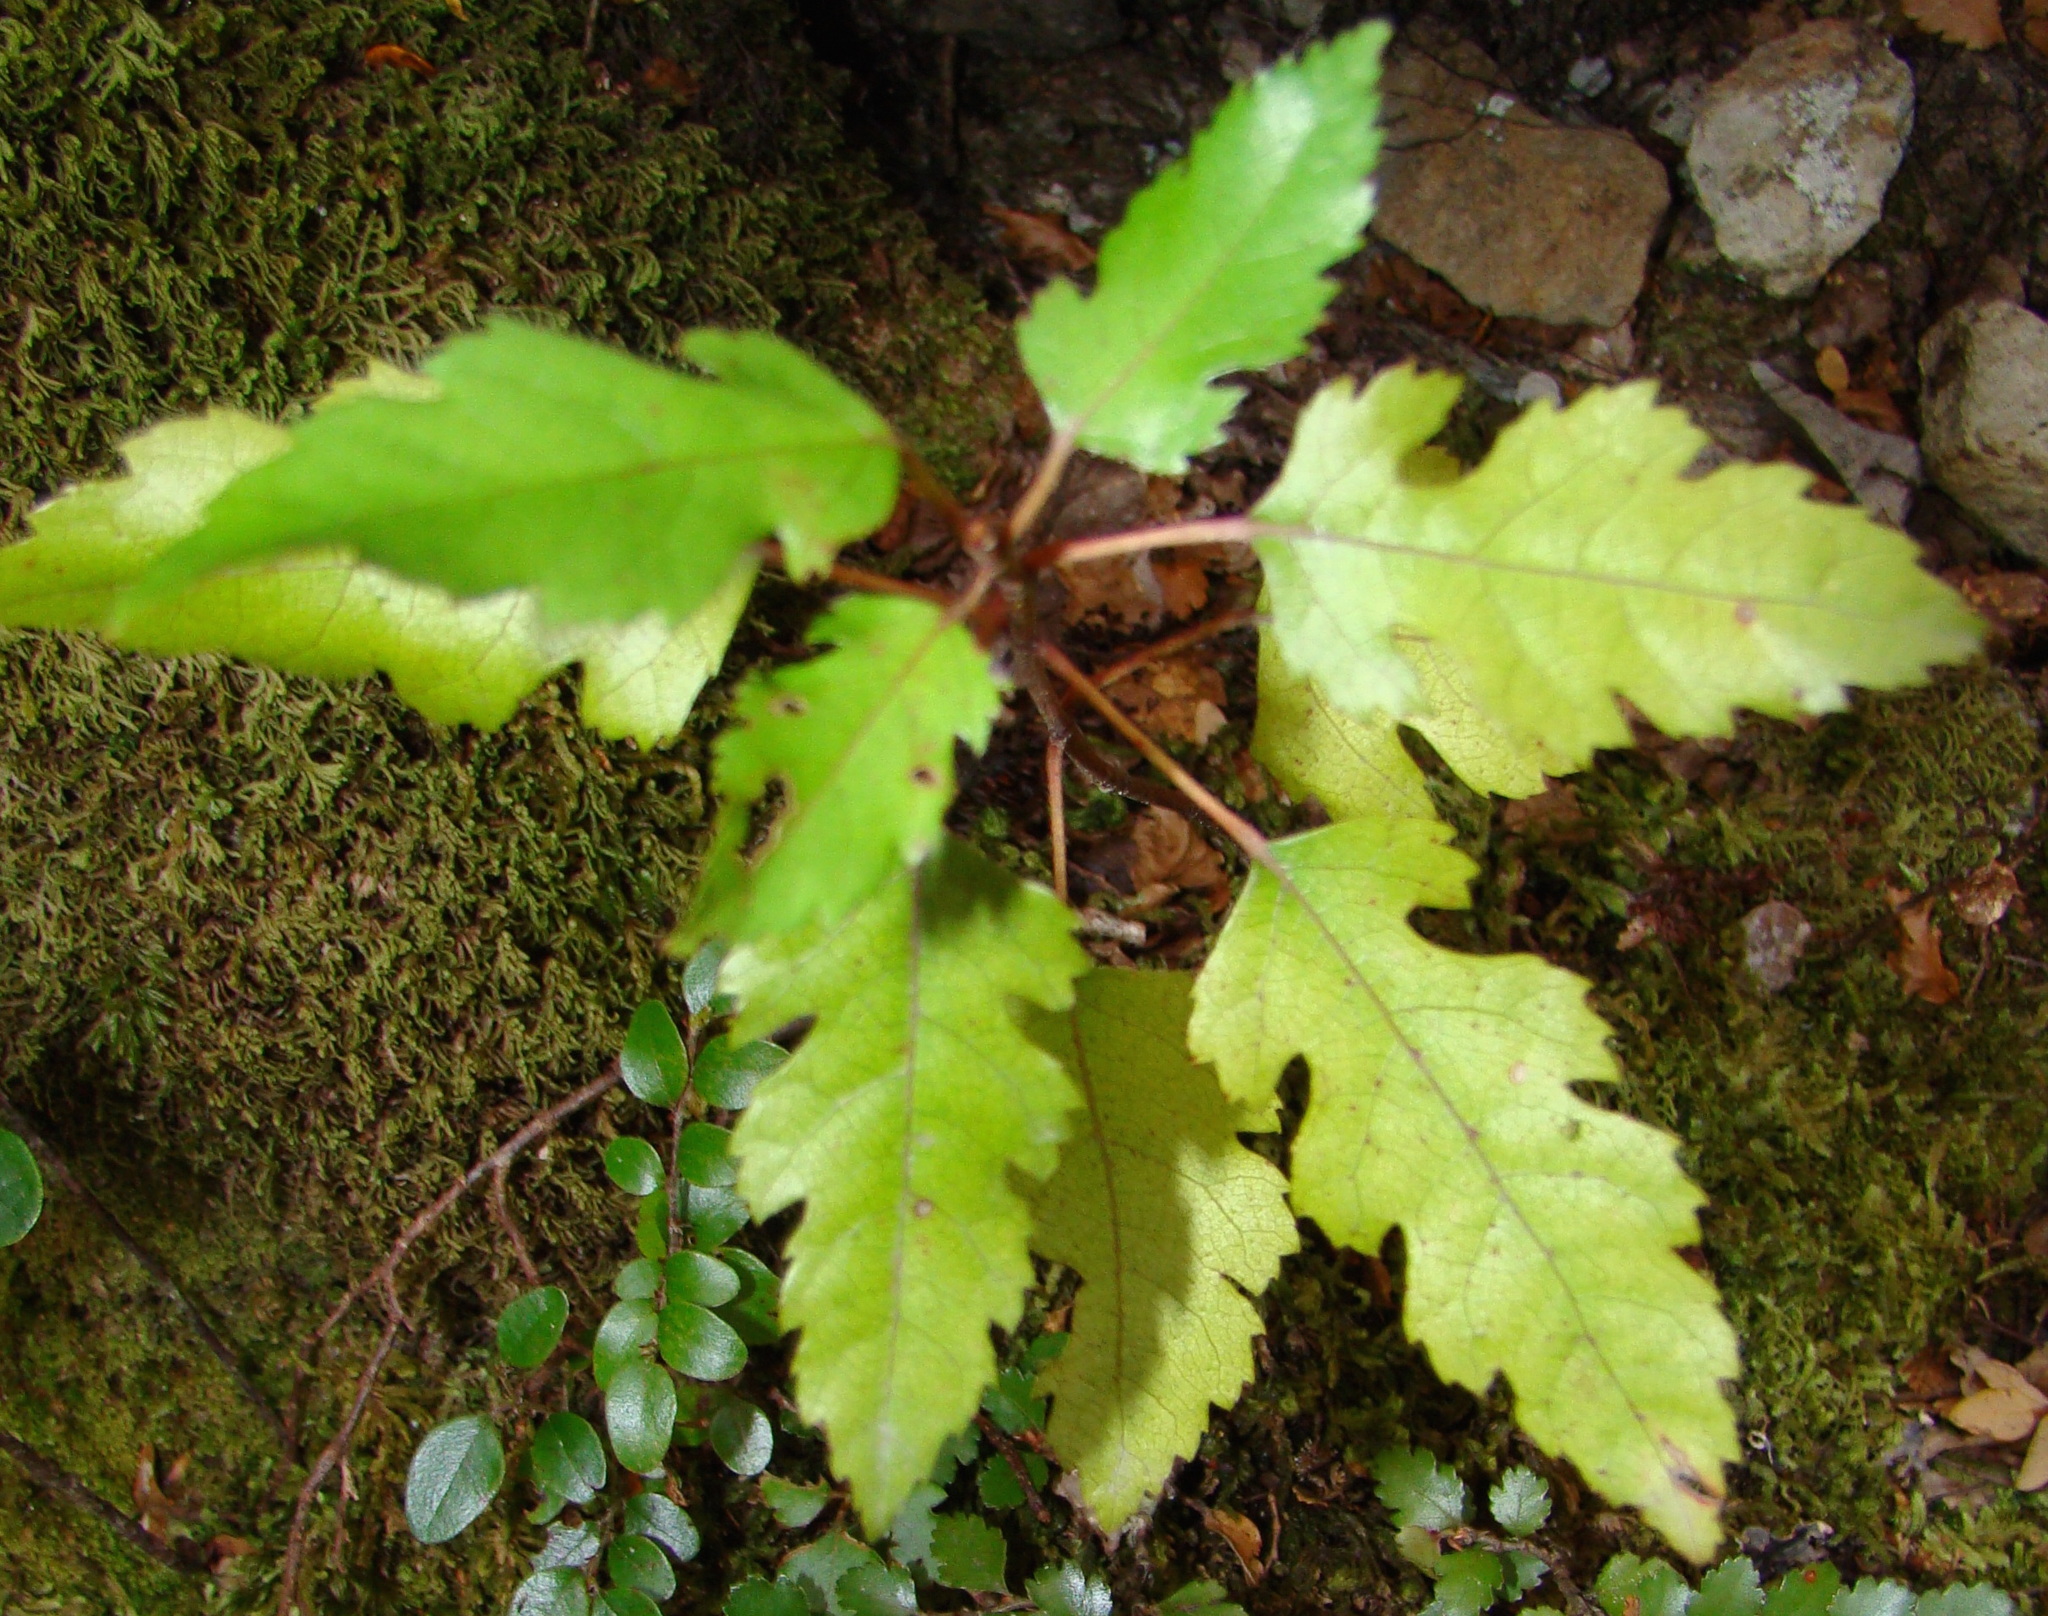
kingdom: Plantae
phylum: Tracheophyta
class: Magnoliopsida
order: Malvales
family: Malvaceae
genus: Hoheria
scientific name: Hoheria glabrata
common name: Mountain-ribbon
